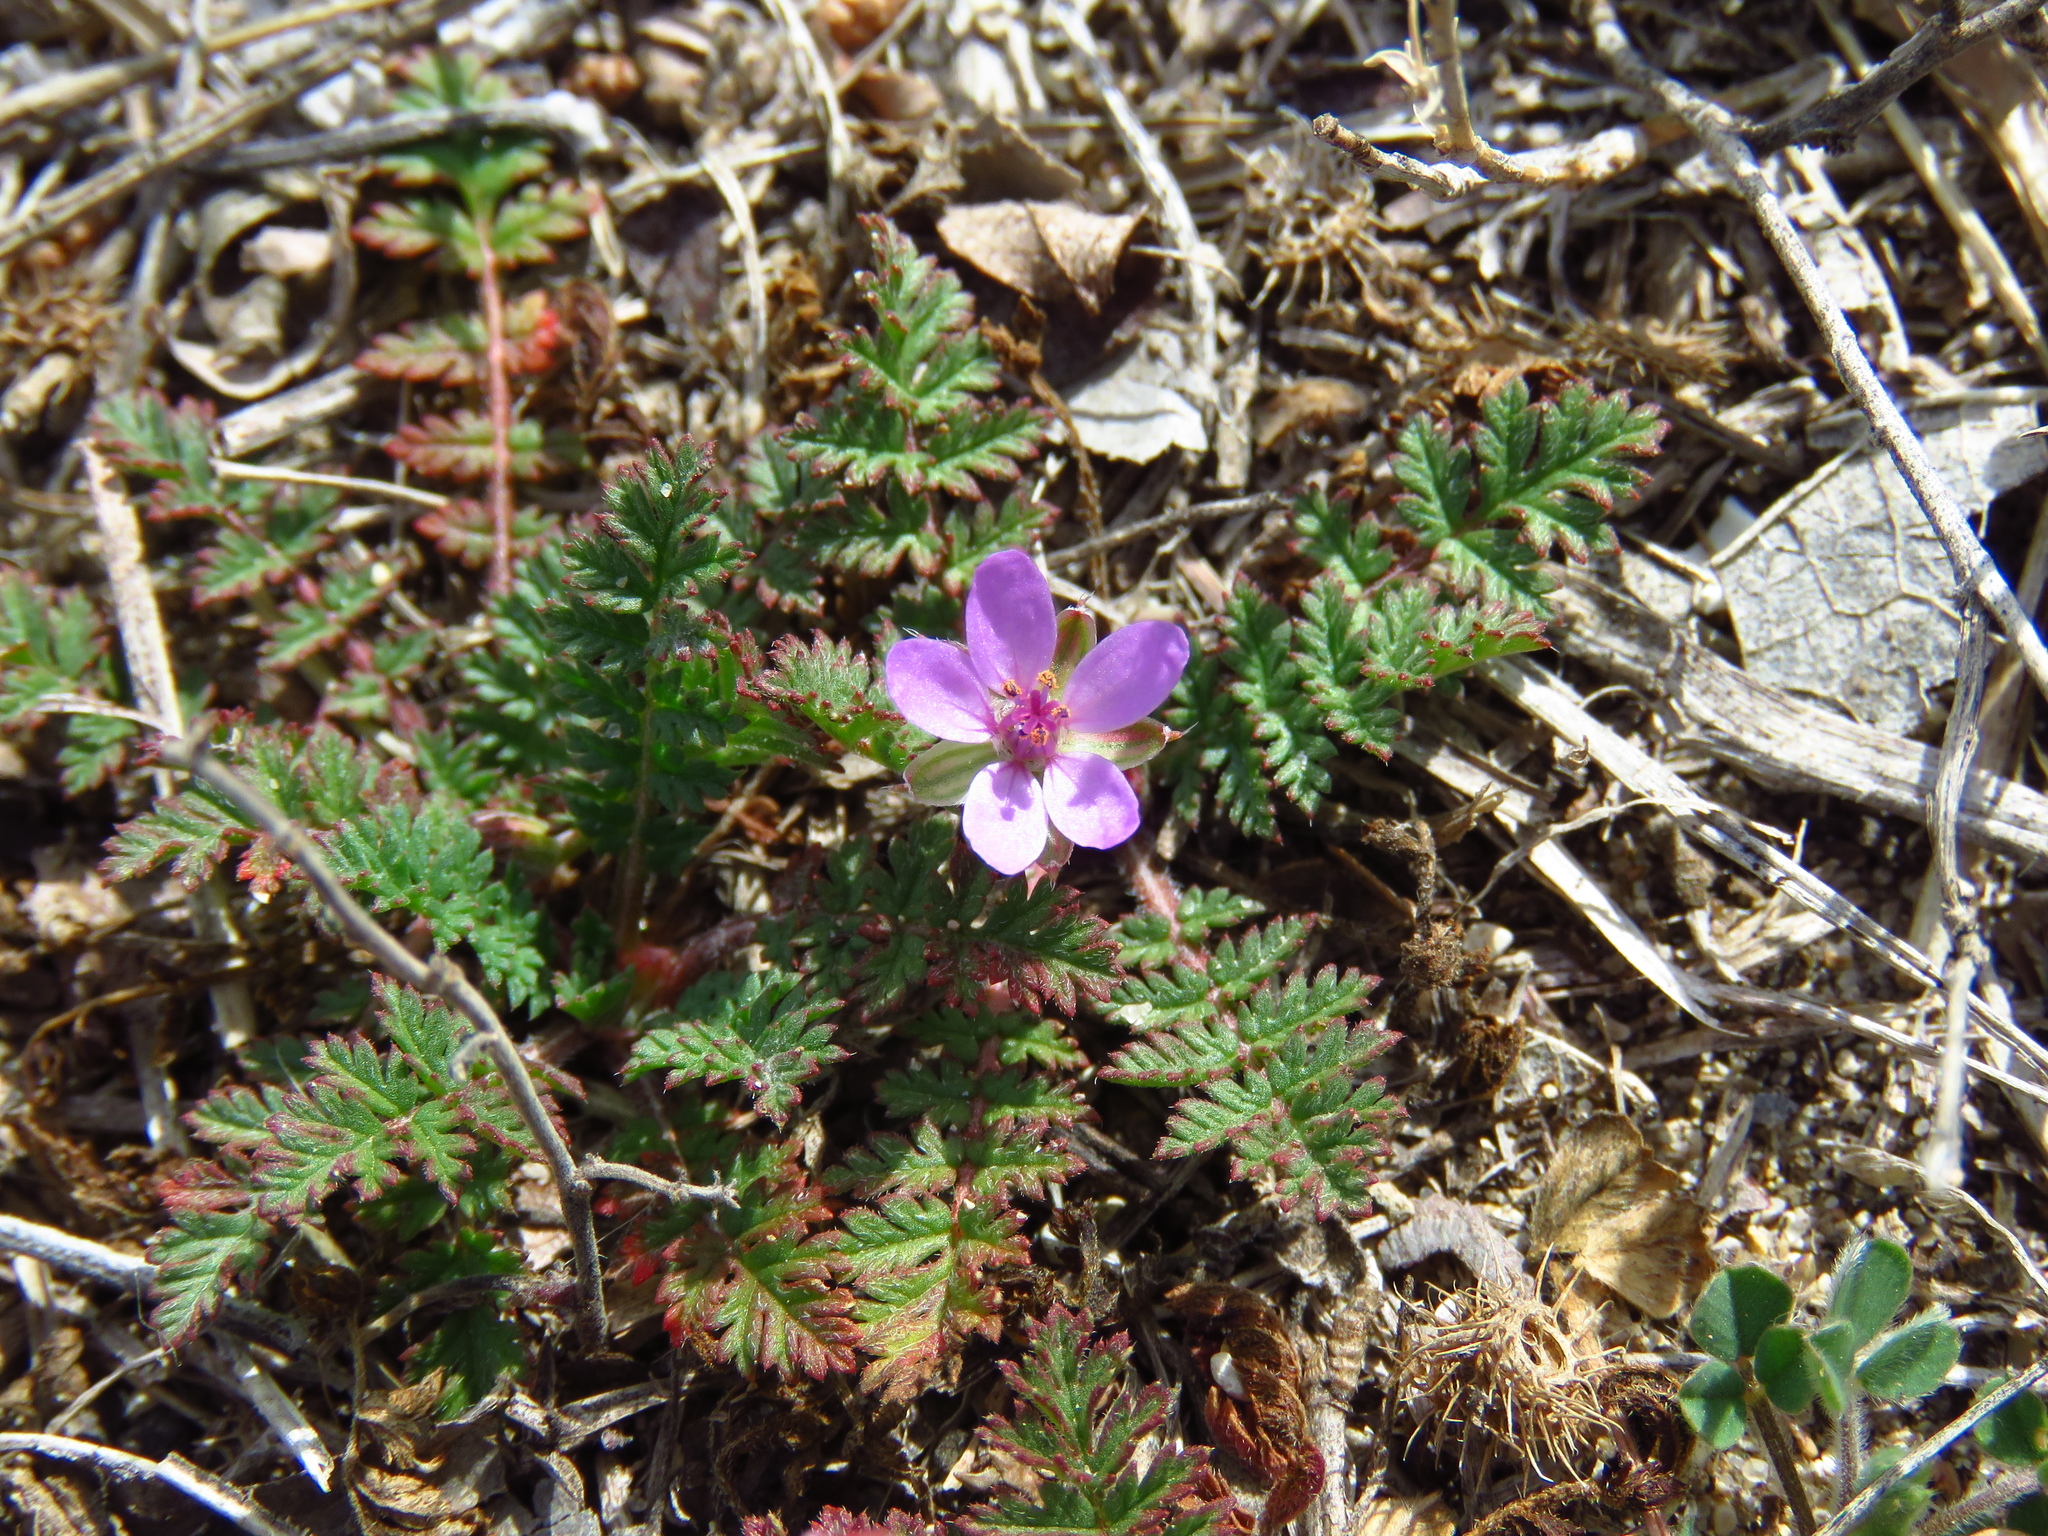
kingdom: Plantae
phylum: Tracheophyta
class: Magnoliopsida
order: Geraniales
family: Geraniaceae
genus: Erodium
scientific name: Erodium cicutarium
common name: Common stork's-bill
